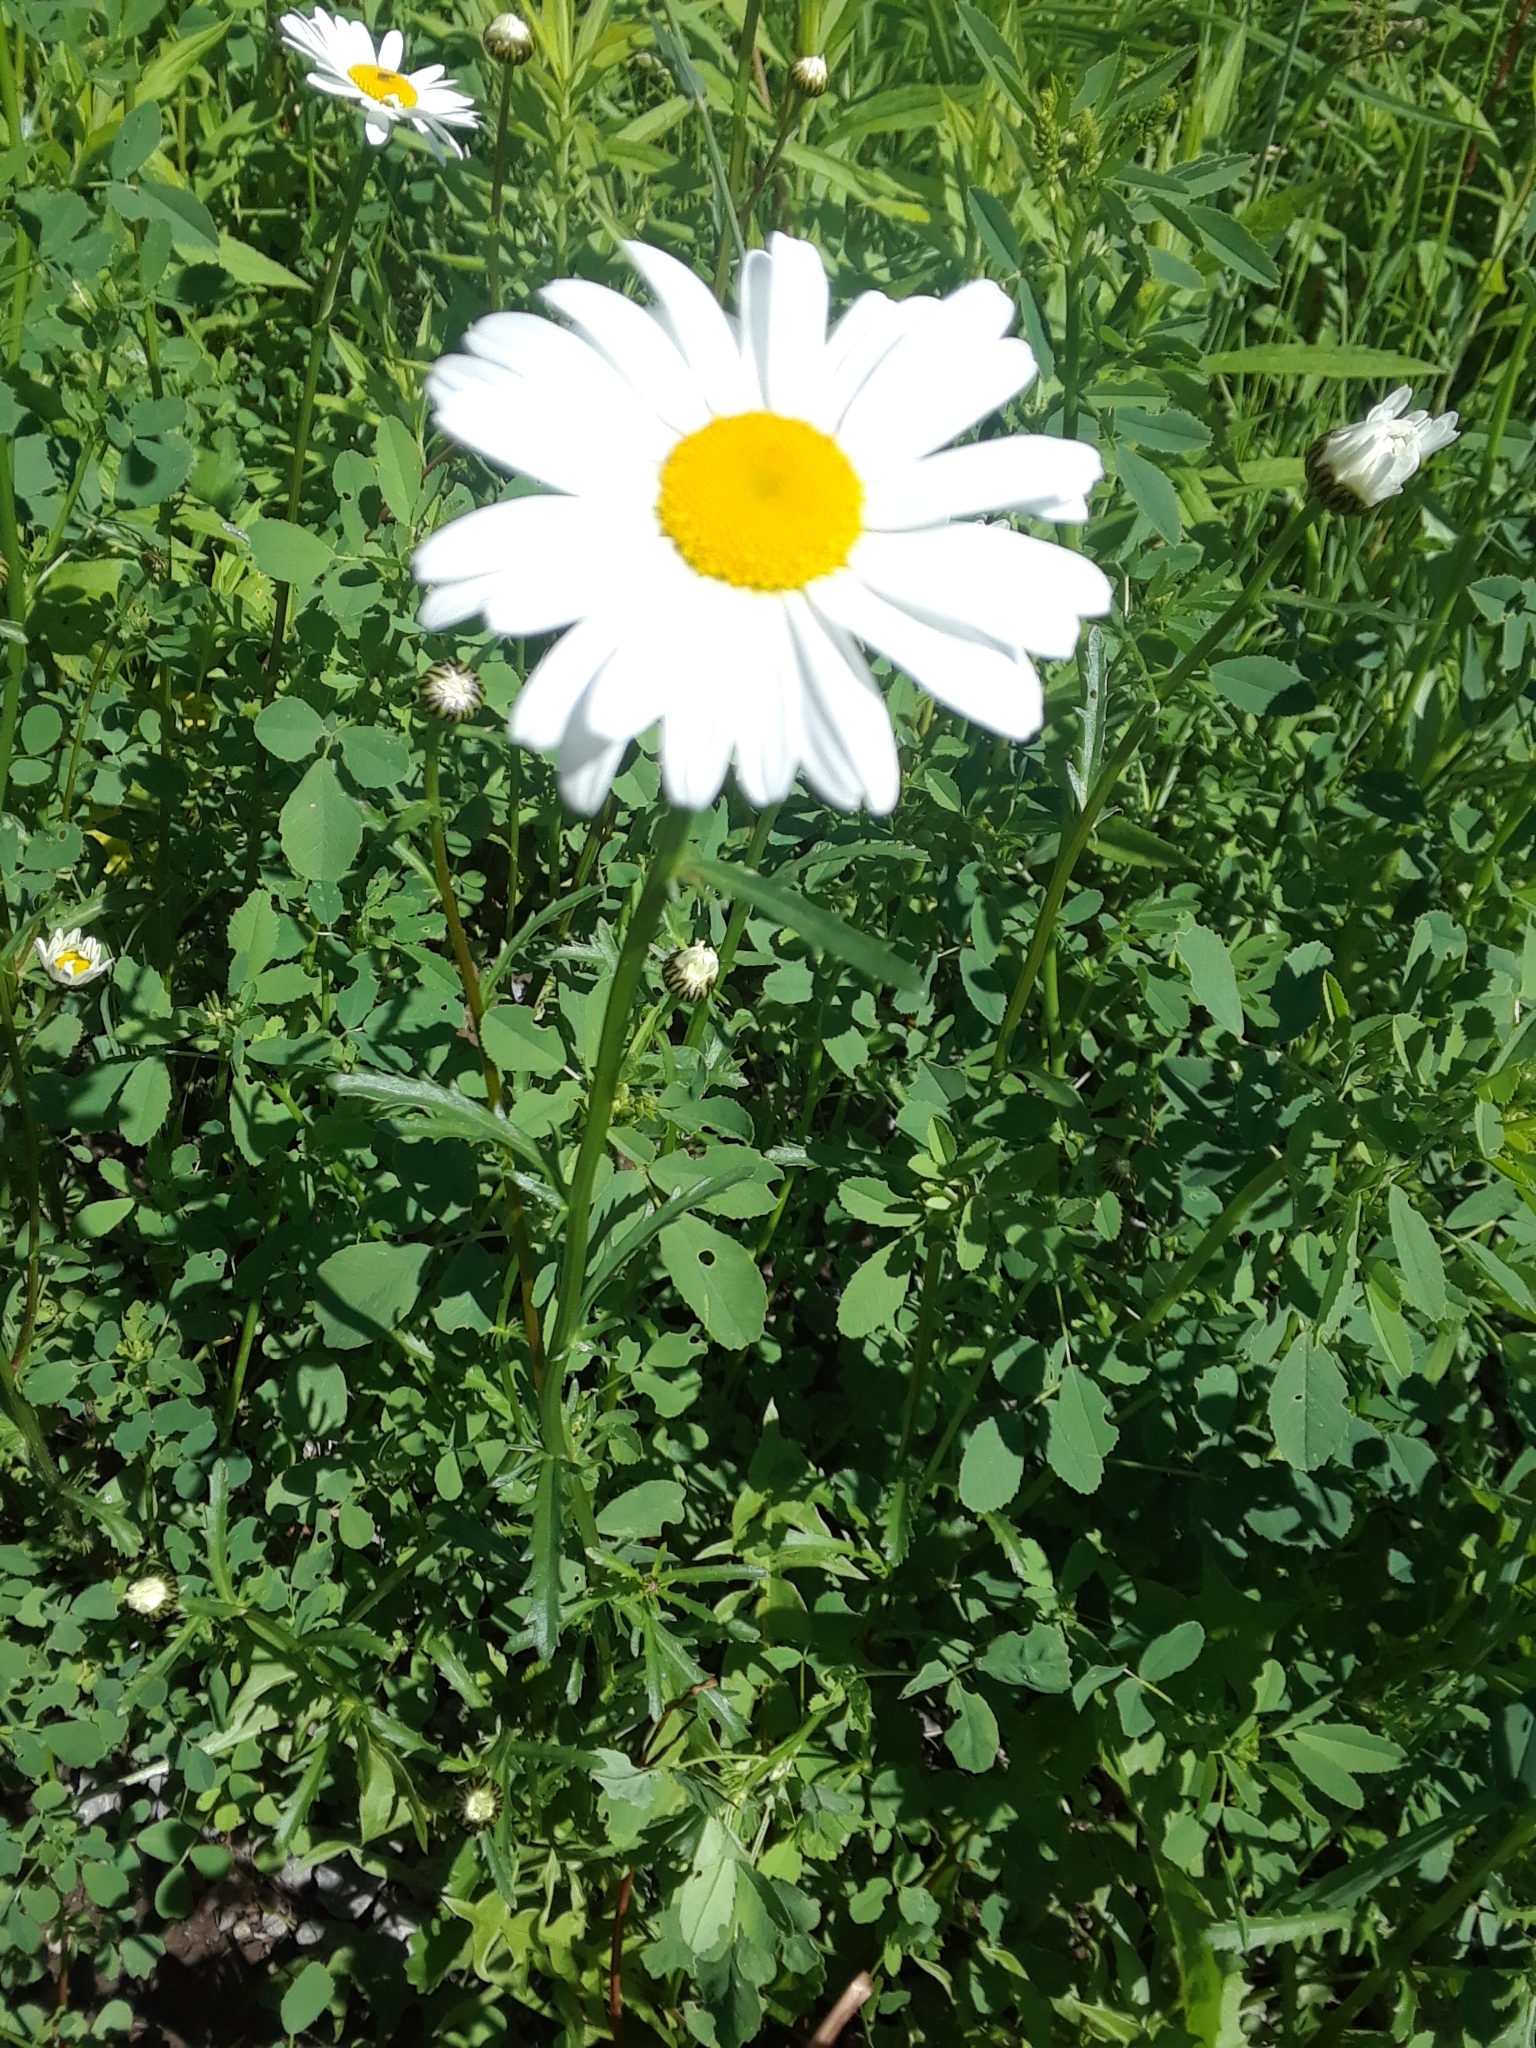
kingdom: Plantae
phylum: Tracheophyta
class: Magnoliopsida
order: Asterales
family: Asteraceae
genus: Leucanthemum
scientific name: Leucanthemum vulgare
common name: Oxeye daisy
